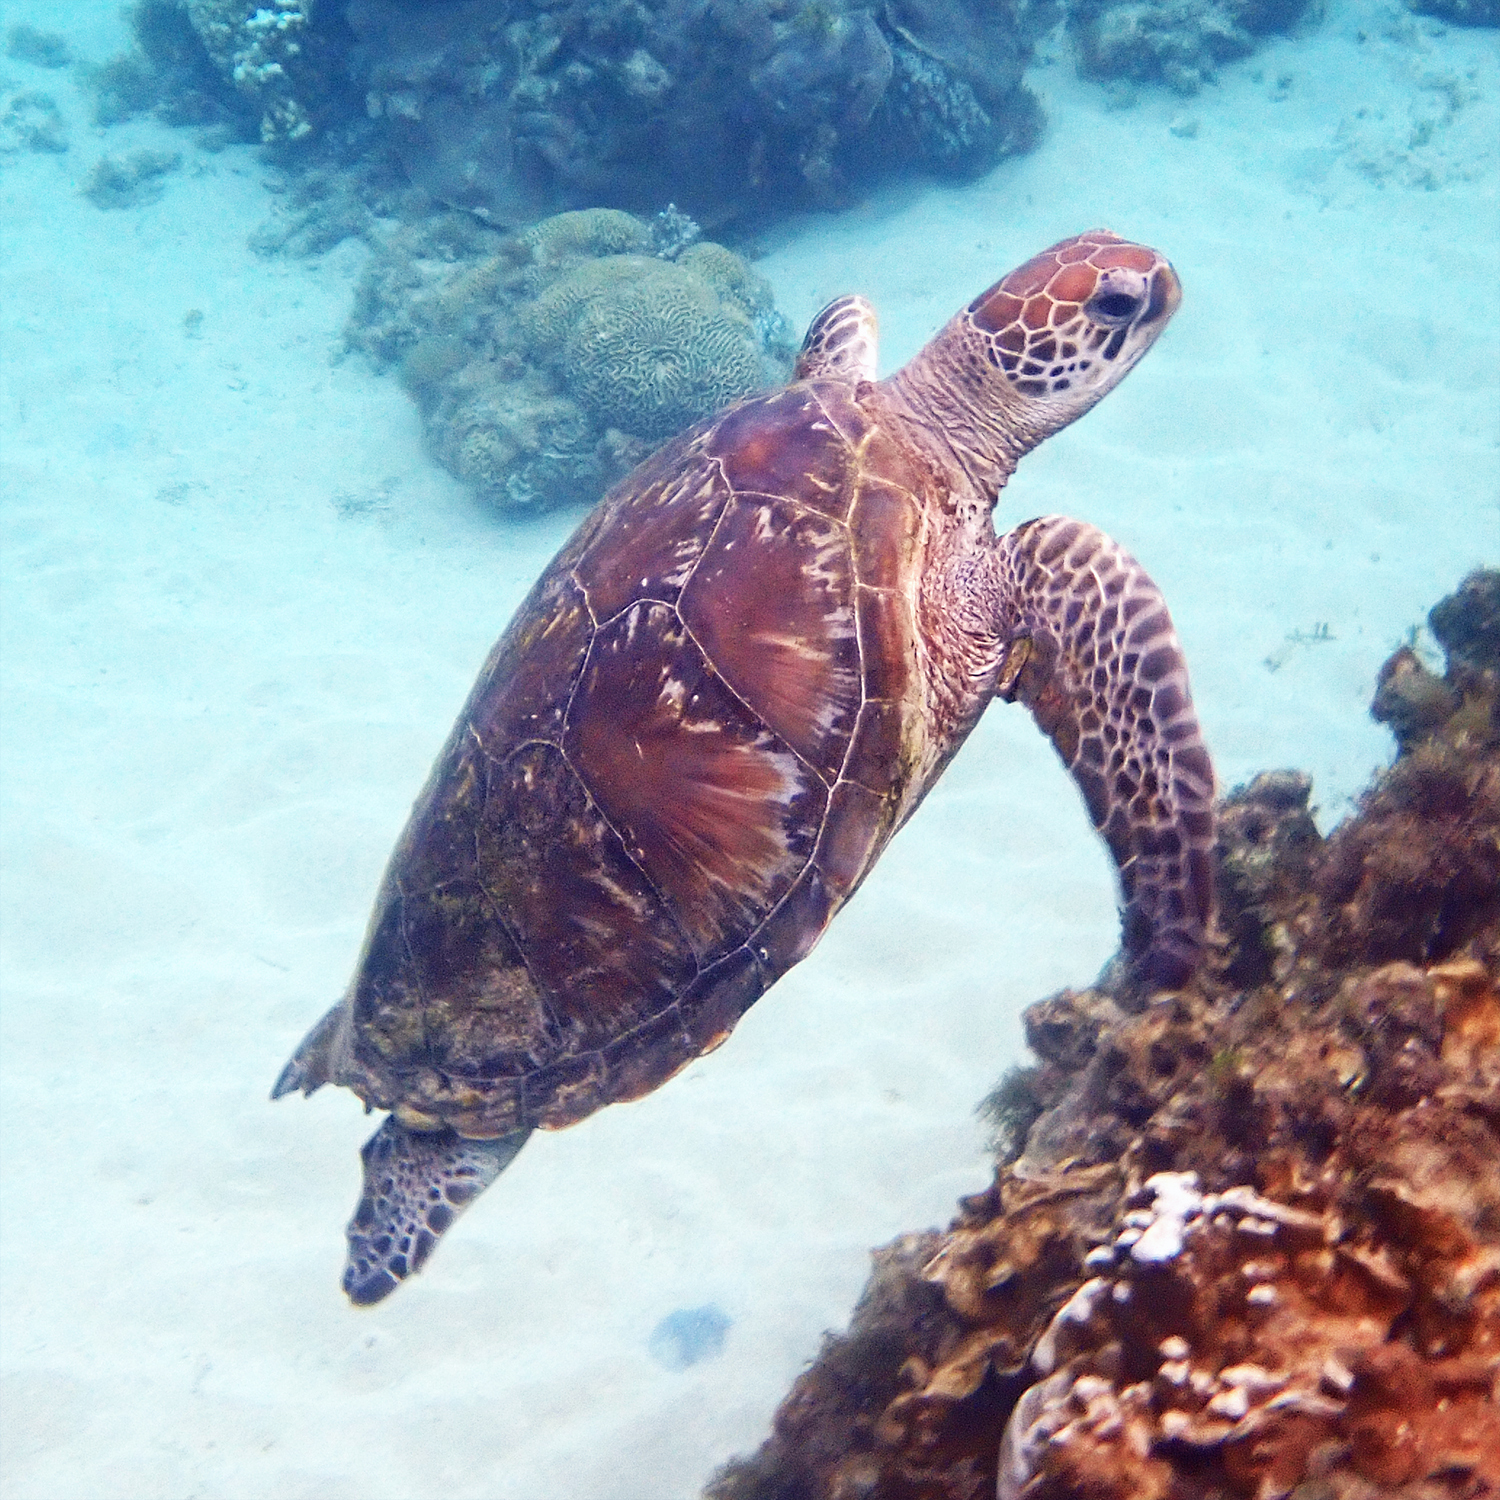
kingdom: Animalia
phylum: Chordata
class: Testudines
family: Cheloniidae
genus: Chelonia
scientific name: Chelonia mydas
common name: Green turtle
